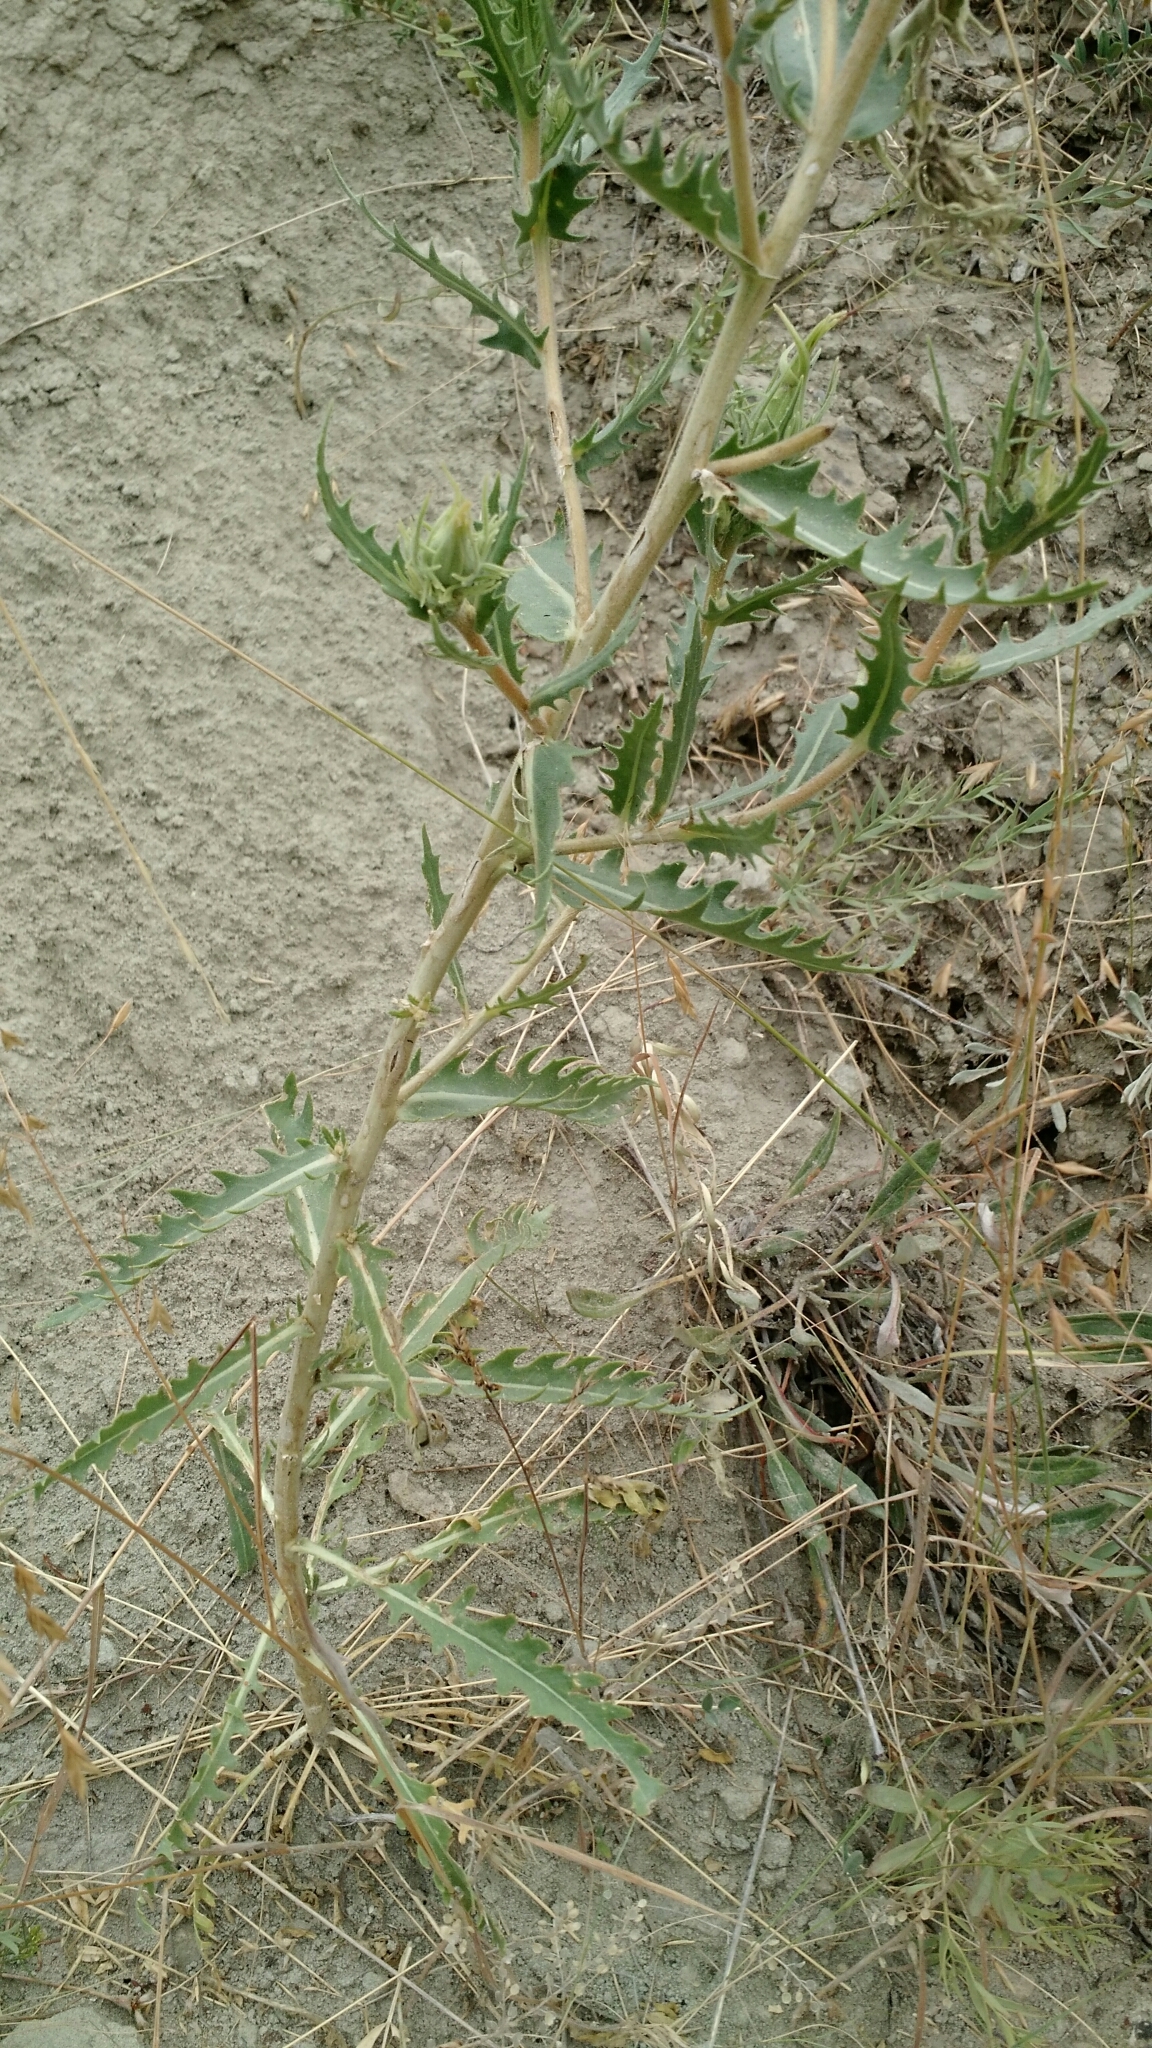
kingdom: Plantae
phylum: Tracheophyta
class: Magnoliopsida
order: Cornales
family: Loasaceae
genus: Mentzelia
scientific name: Mentzelia decapetala
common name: Gumbo-lily
